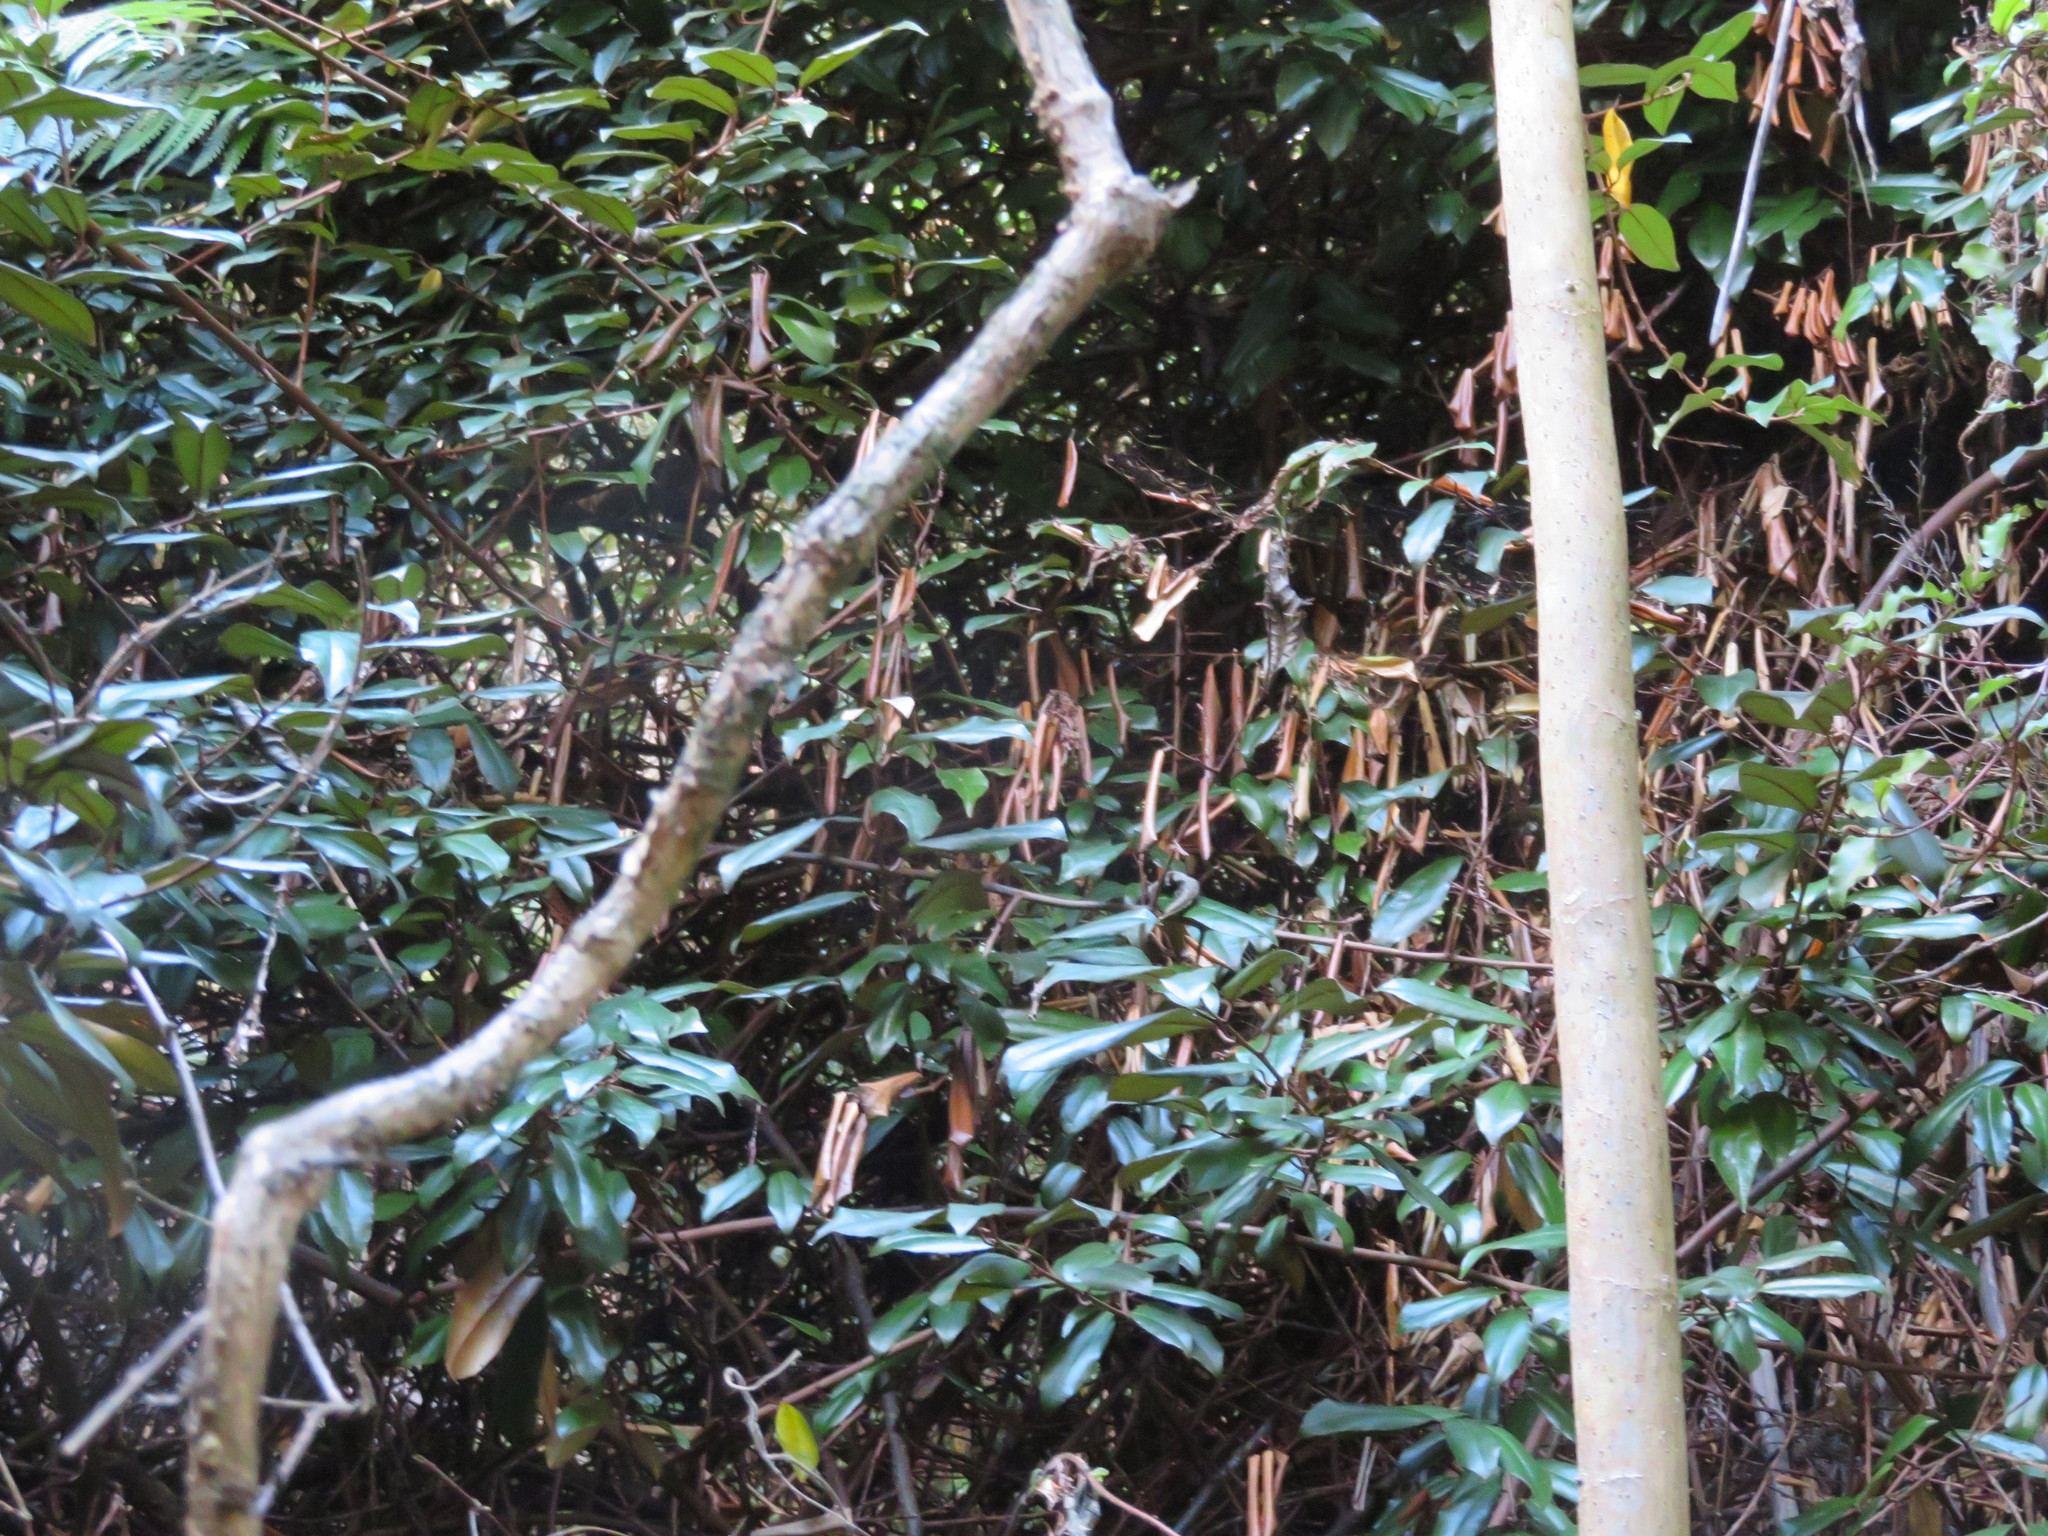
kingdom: Plantae
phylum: Tracheophyta
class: Magnoliopsida
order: Rosales
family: Elaeagnaceae
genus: Elaeagnus
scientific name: Elaeagnus reflexa
